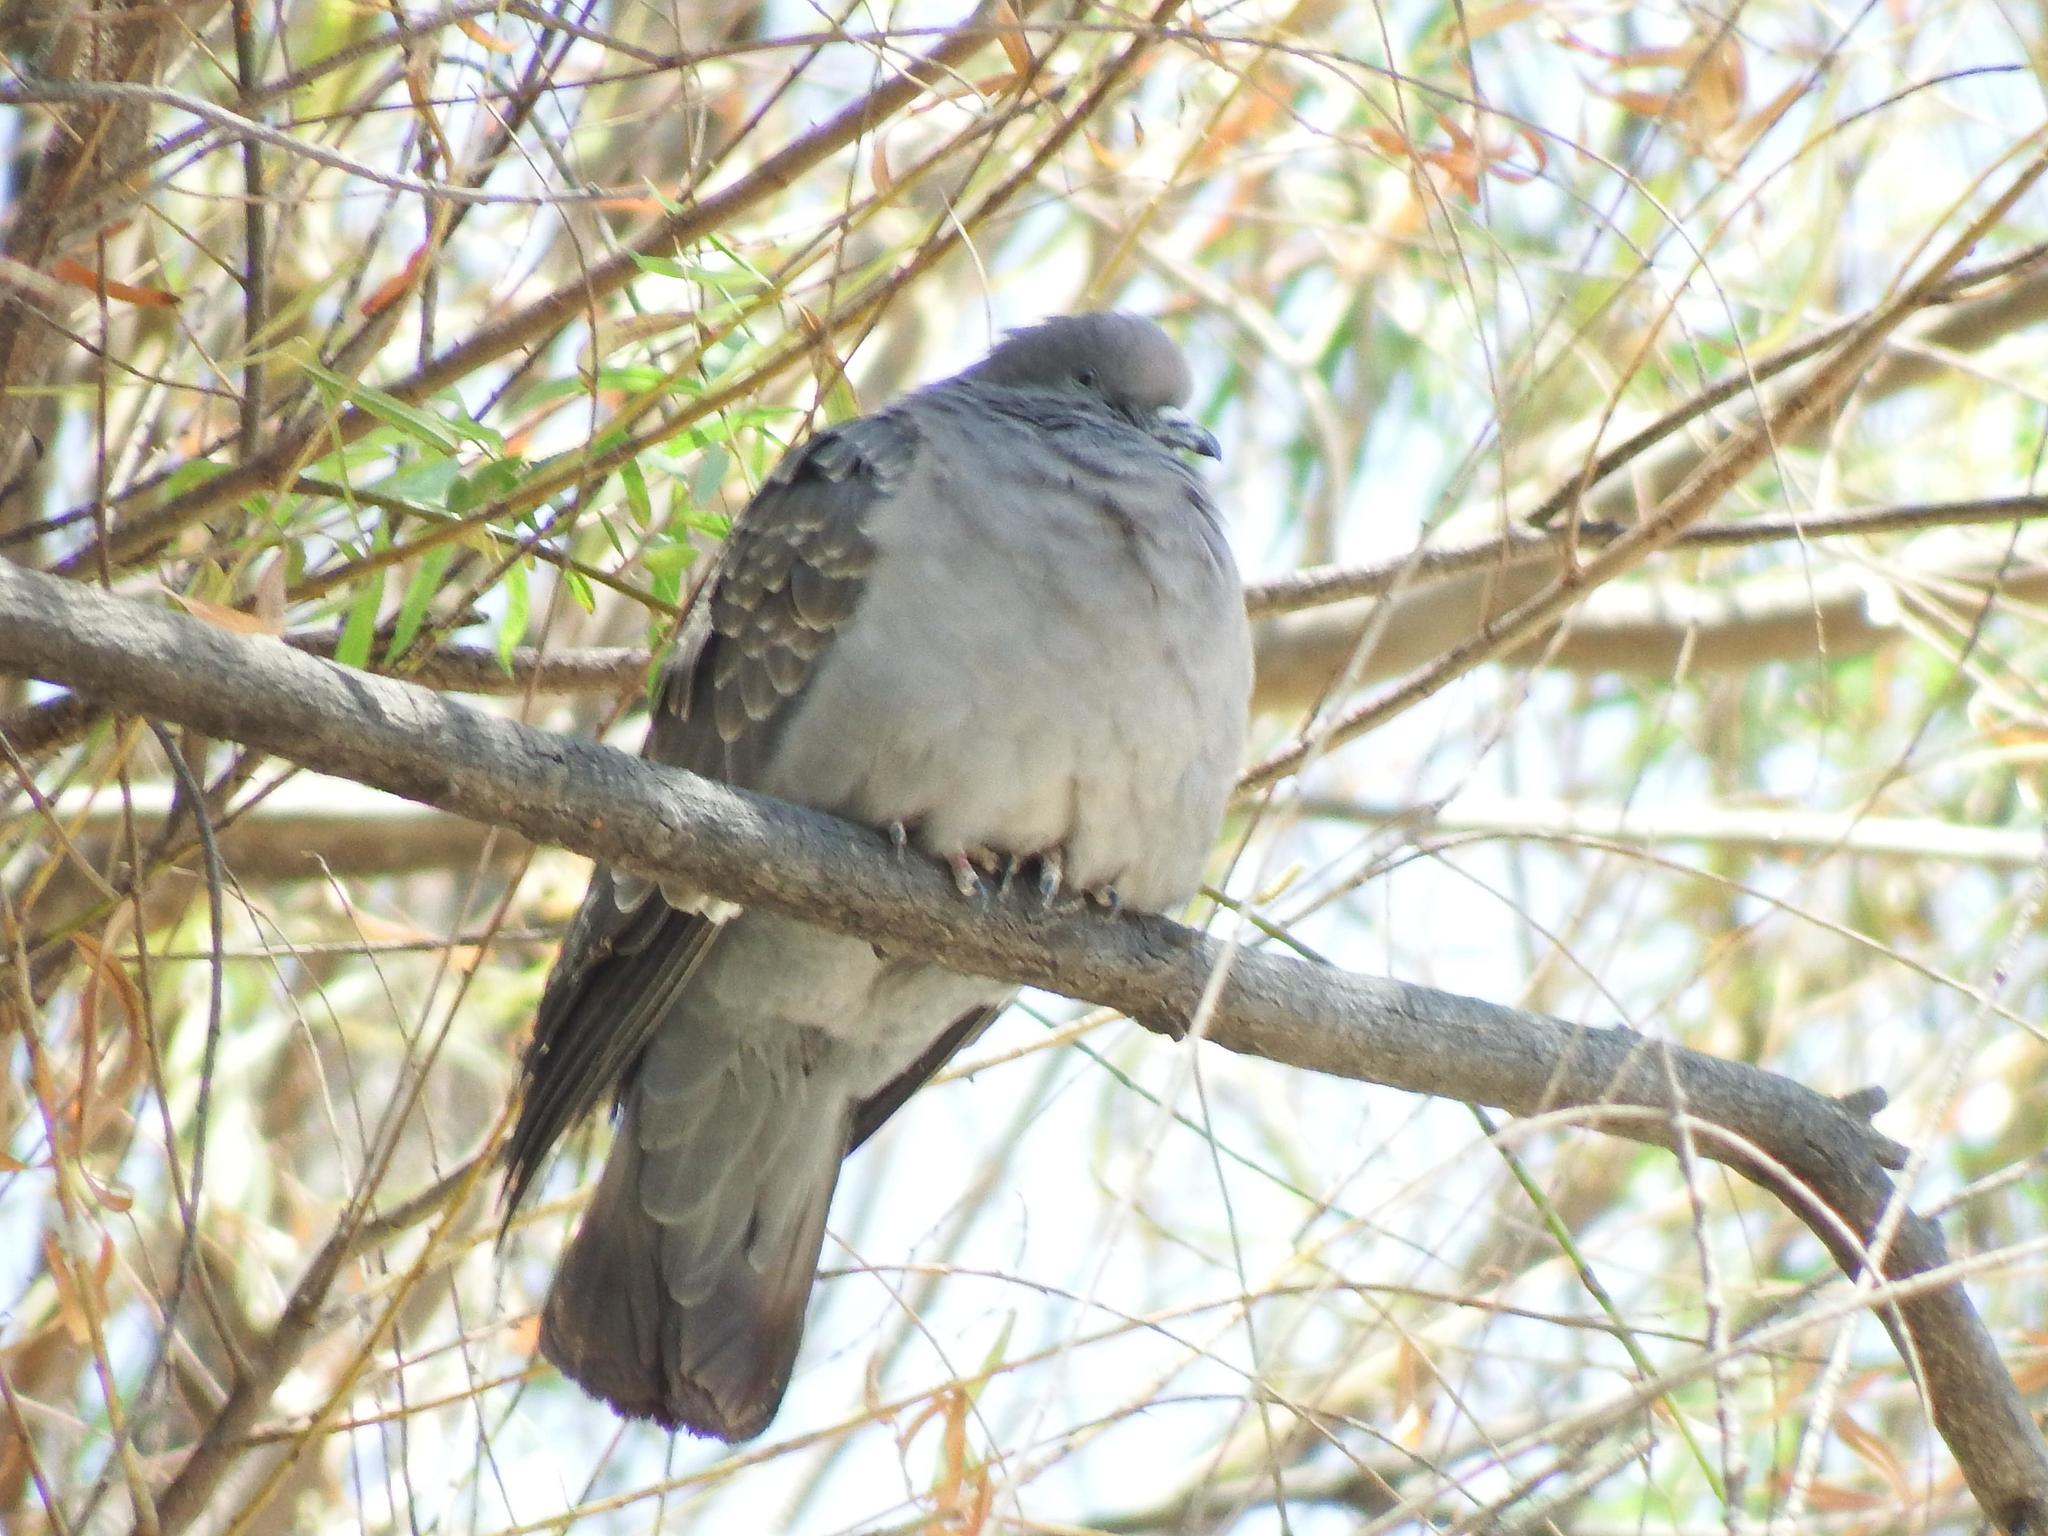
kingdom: Animalia
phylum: Chordata
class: Aves
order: Columbiformes
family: Columbidae
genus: Patagioenas
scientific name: Patagioenas maculosa
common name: Spot-winged pigeon
